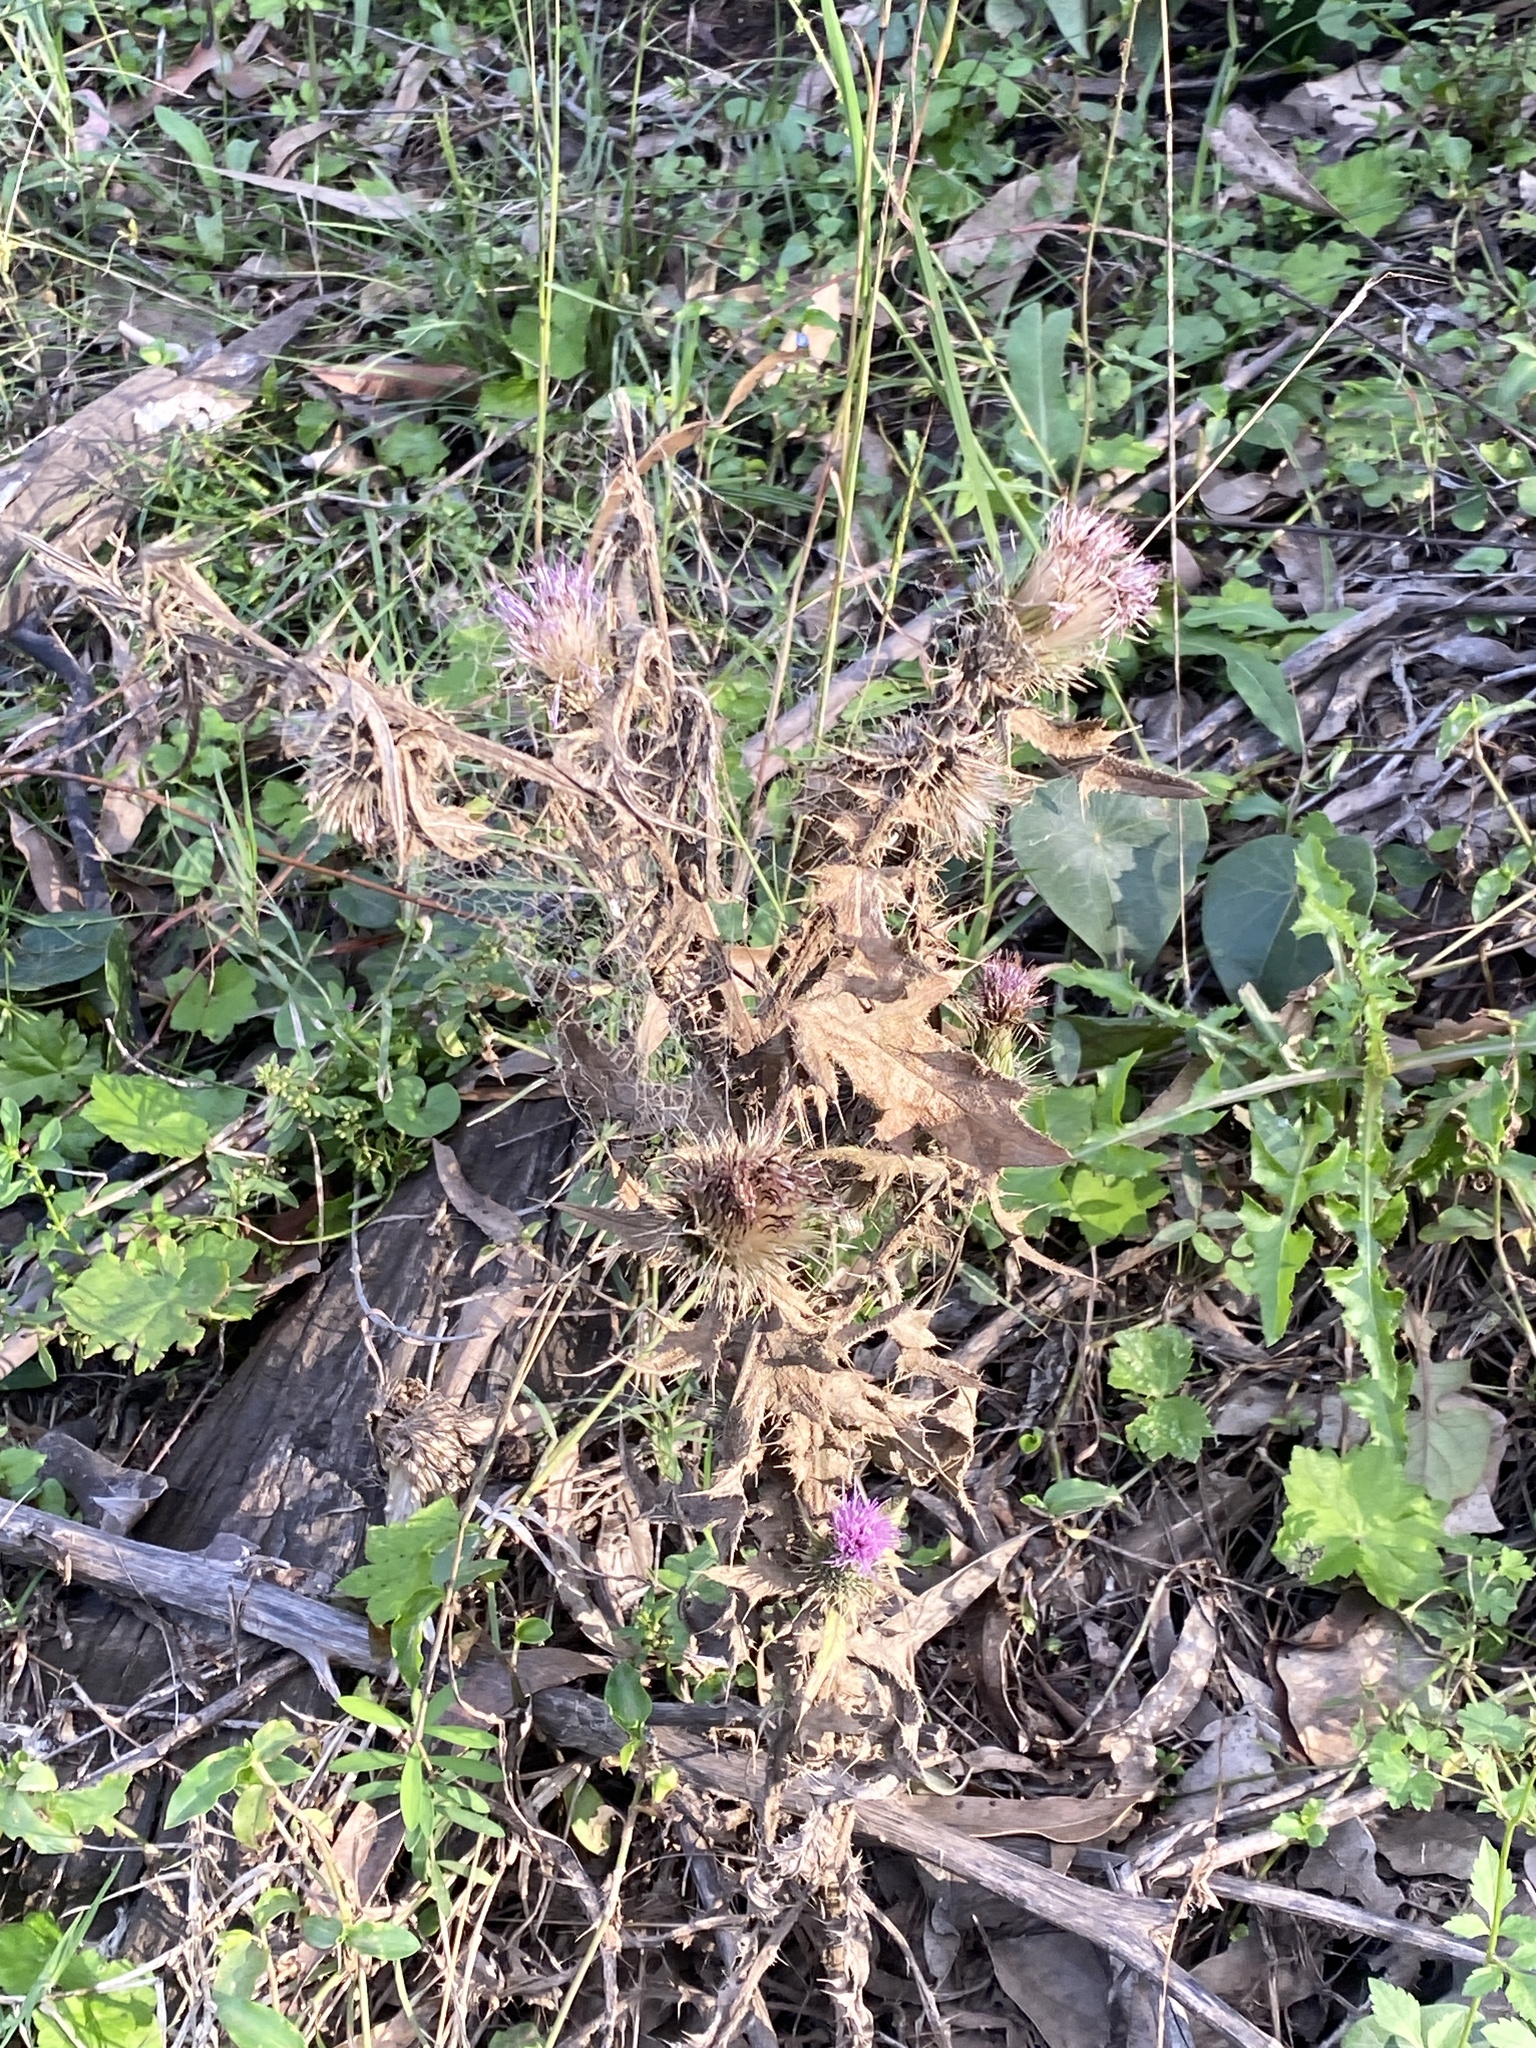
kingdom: Plantae
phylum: Tracheophyta
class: Magnoliopsida
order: Asterales
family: Asteraceae
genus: Cirsium
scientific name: Cirsium vulgare
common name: Bull thistle
